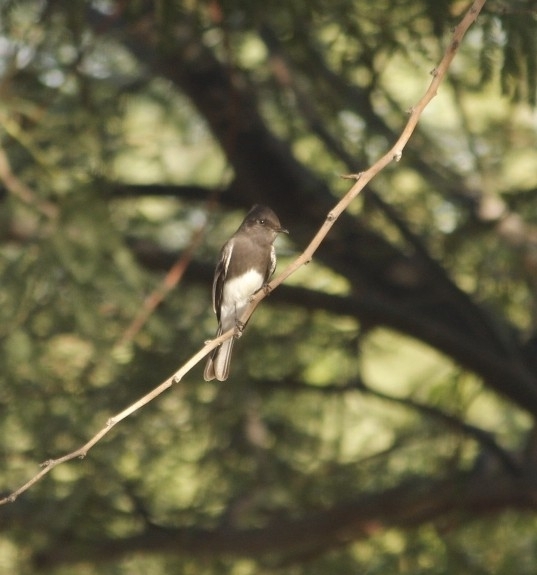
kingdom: Animalia
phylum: Chordata
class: Aves
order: Passeriformes
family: Tyrannidae
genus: Sayornis
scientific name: Sayornis nigricans
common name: Black phoebe
